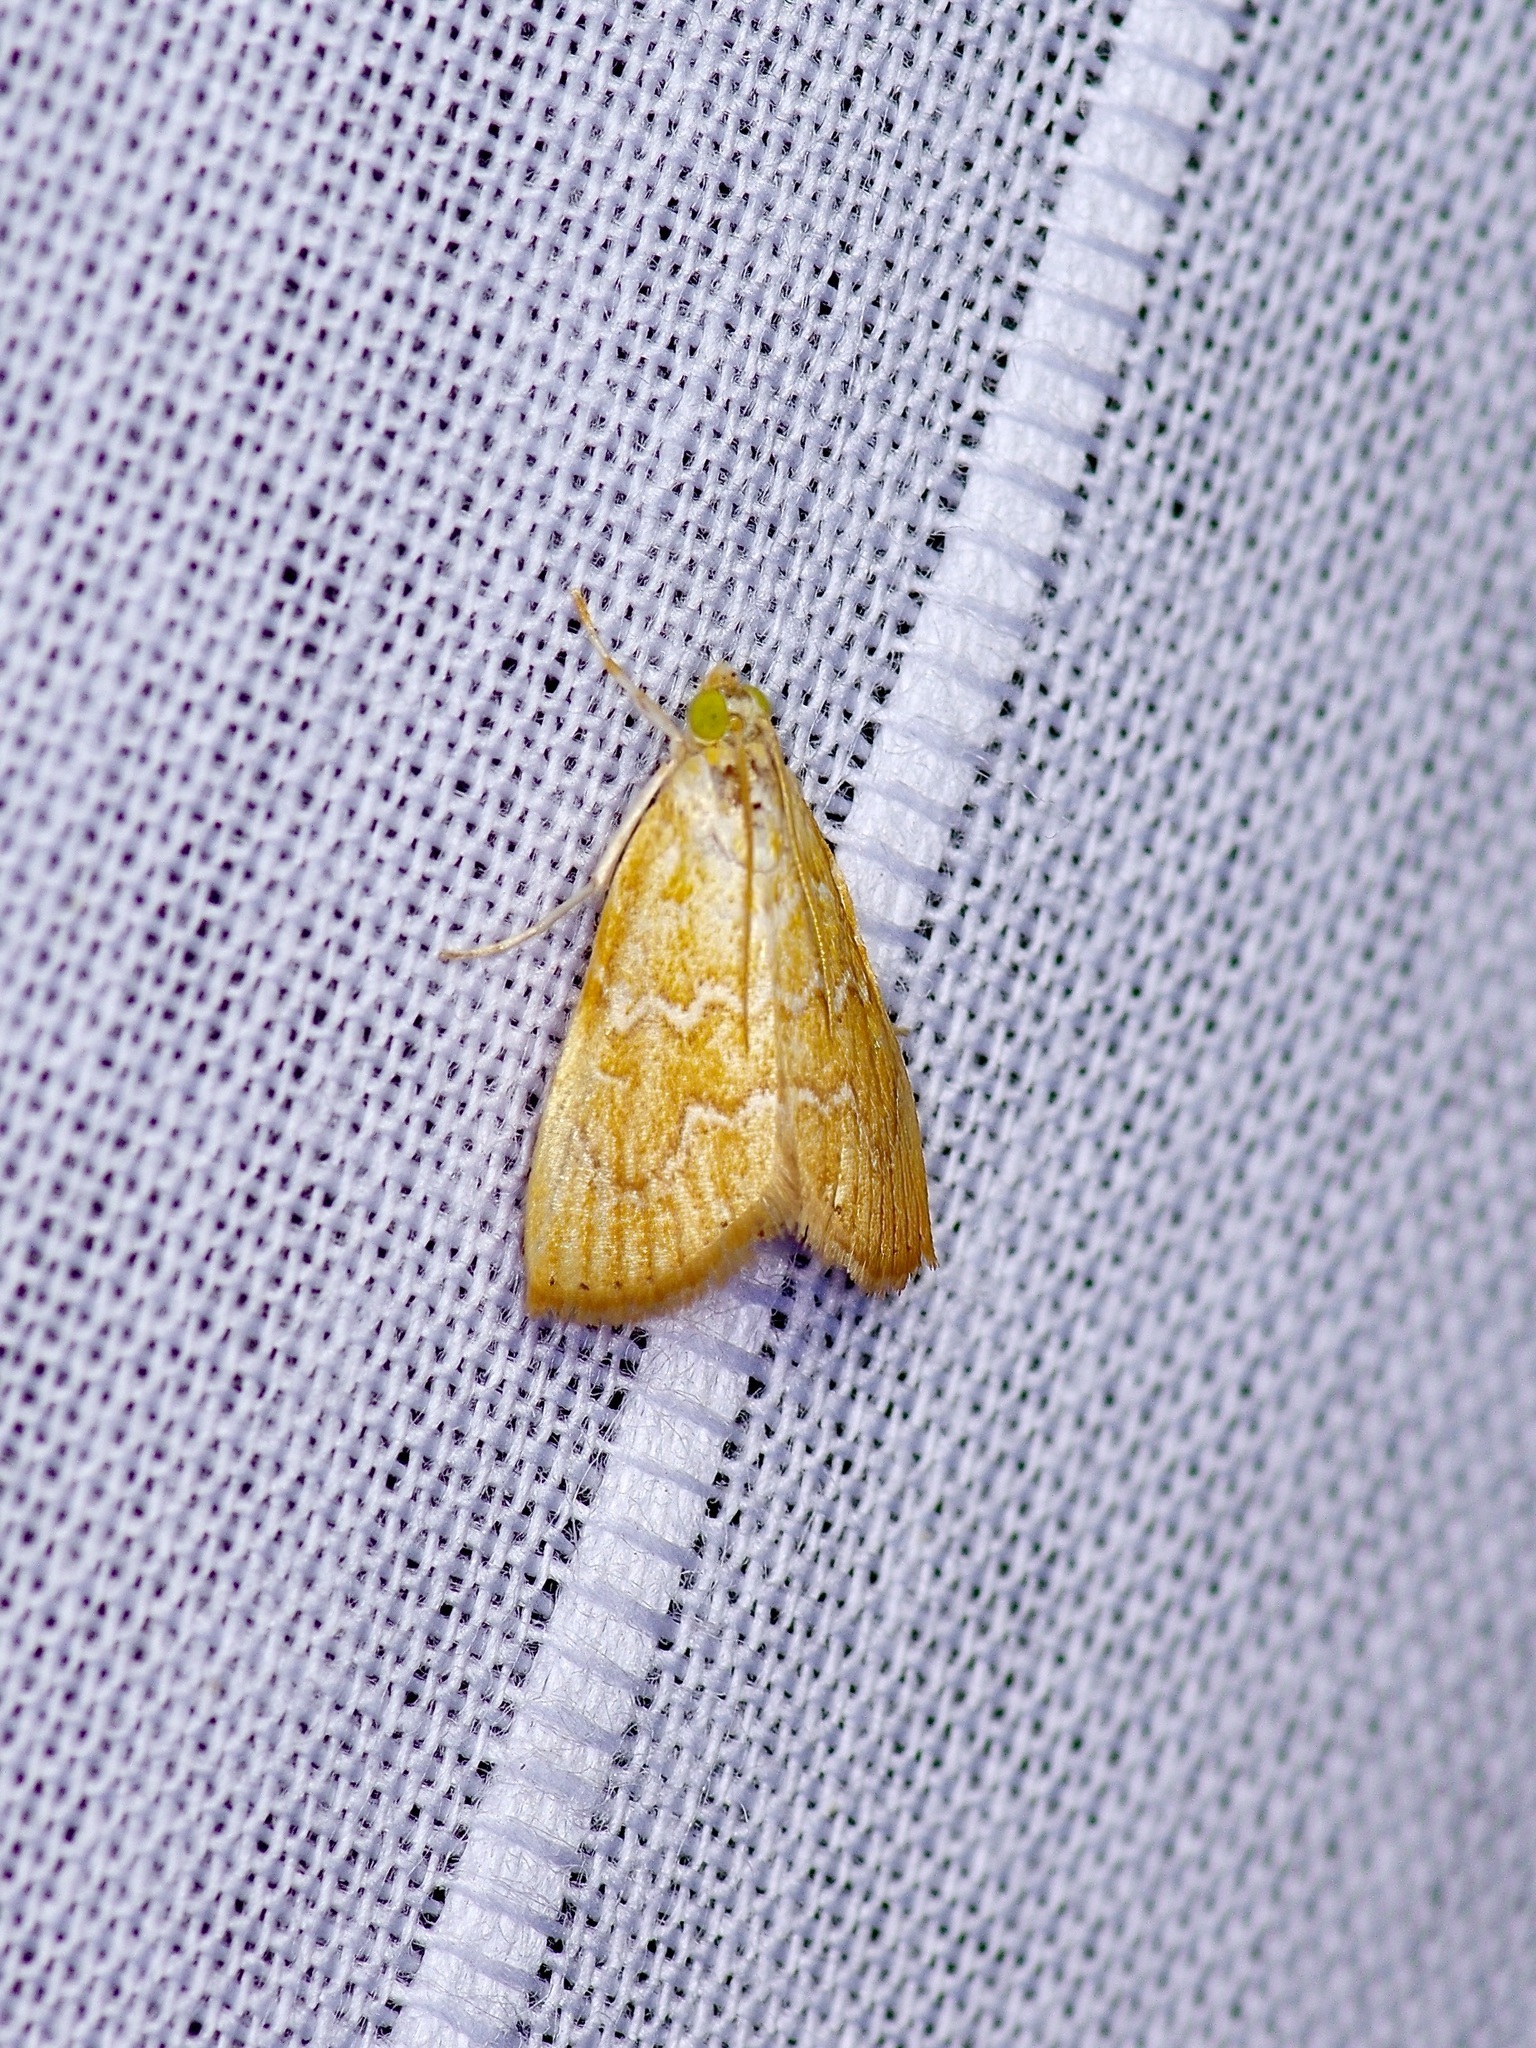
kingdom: Animalia
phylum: Arthropoda
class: Insecta
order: Lepidoptera
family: Crambidae
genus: Glaphyria
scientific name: Glaphyria sesquistrialis
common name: White-roped glaphyria
